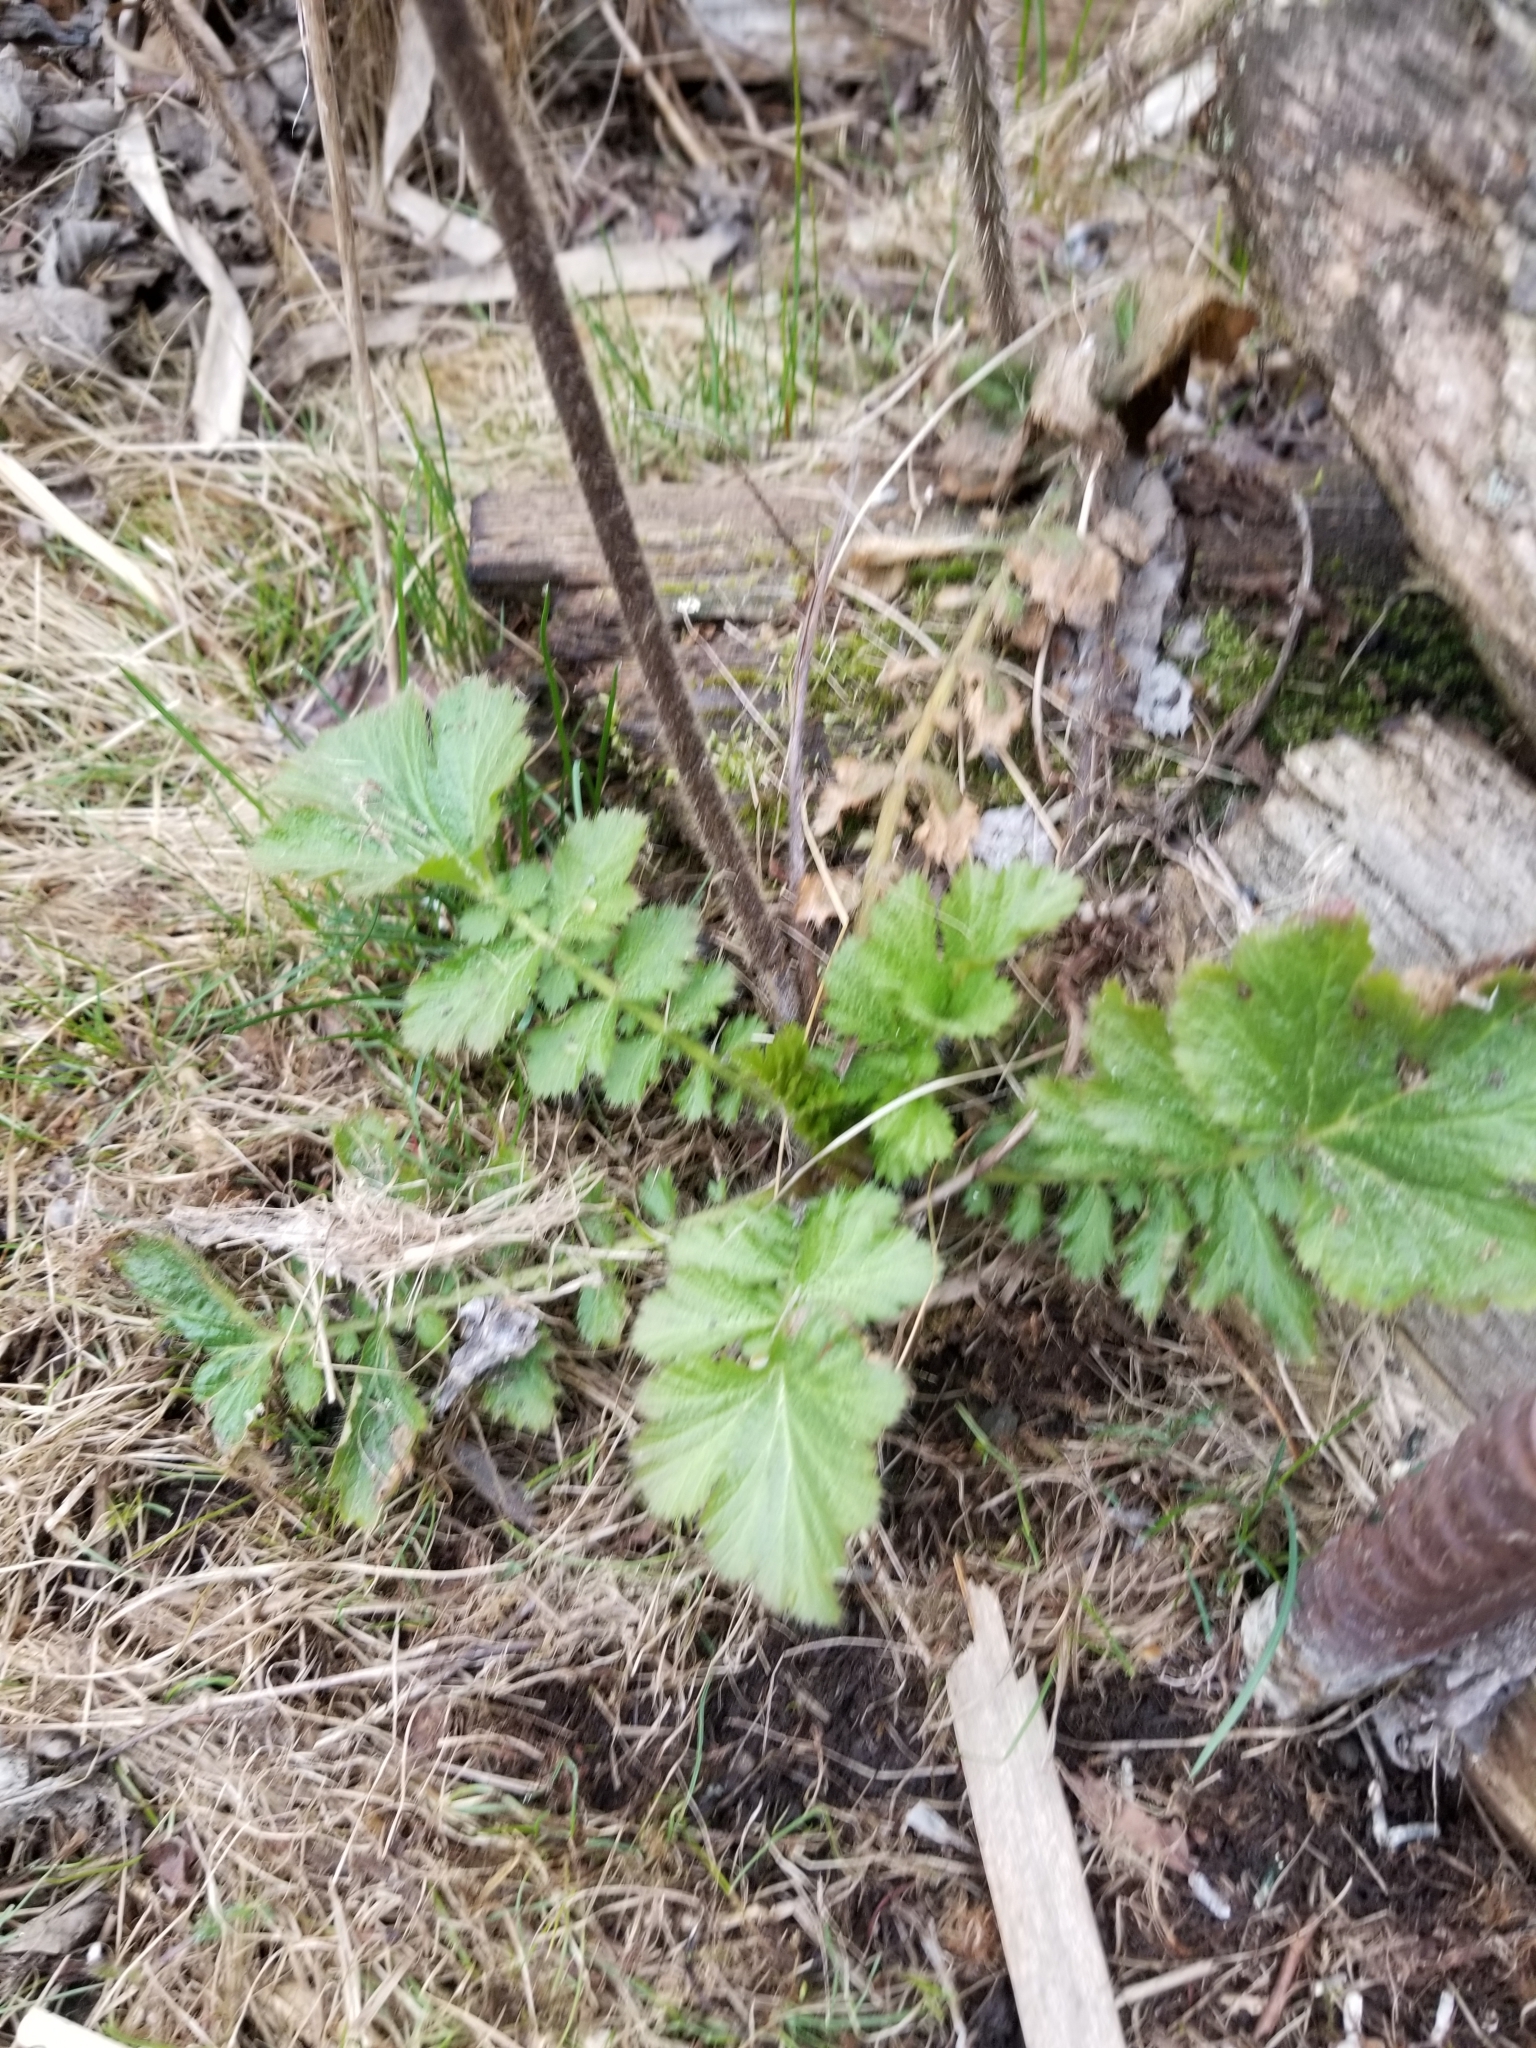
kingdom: Plantae
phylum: Tracheophyta
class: Magnoliopsida
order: Rosales
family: Rosaceae
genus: Geum
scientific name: Geum macrophyllum
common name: Large-leaved avens
